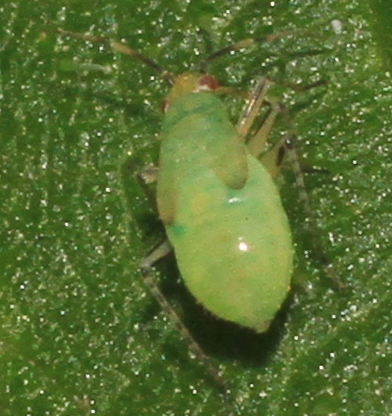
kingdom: Animalia
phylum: Arthropoda
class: Insecta
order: Hemiptera
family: Miridae
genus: Plagiognathus
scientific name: Plagiognathus arbustorum
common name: Plant bug
